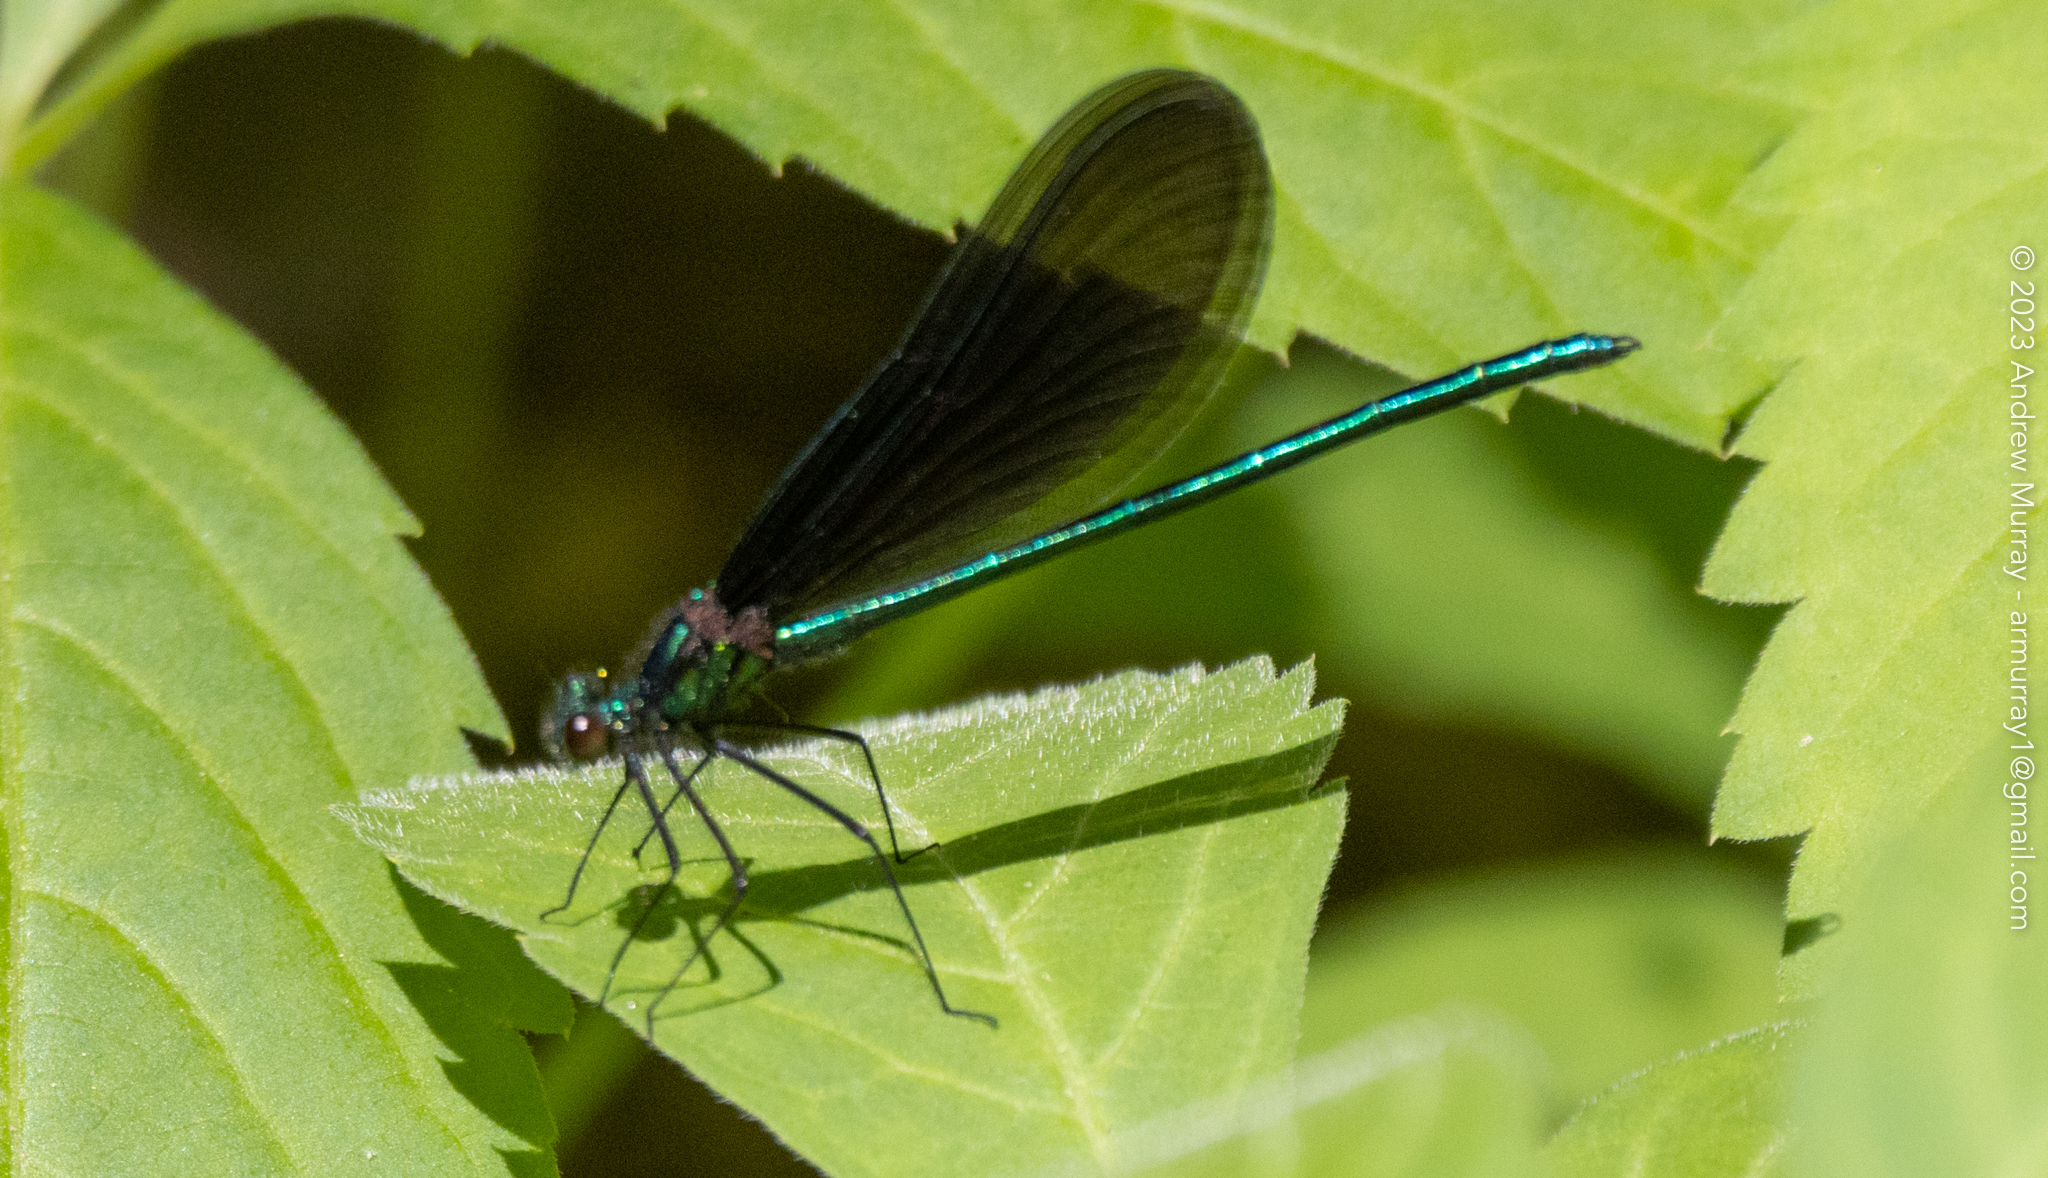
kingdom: Animalia
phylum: Arthropoda
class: Insecta
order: Odonata
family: Calopterygidae
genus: Calopteryx
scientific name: Calopteryx maculata
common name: Ebony jewelwing
